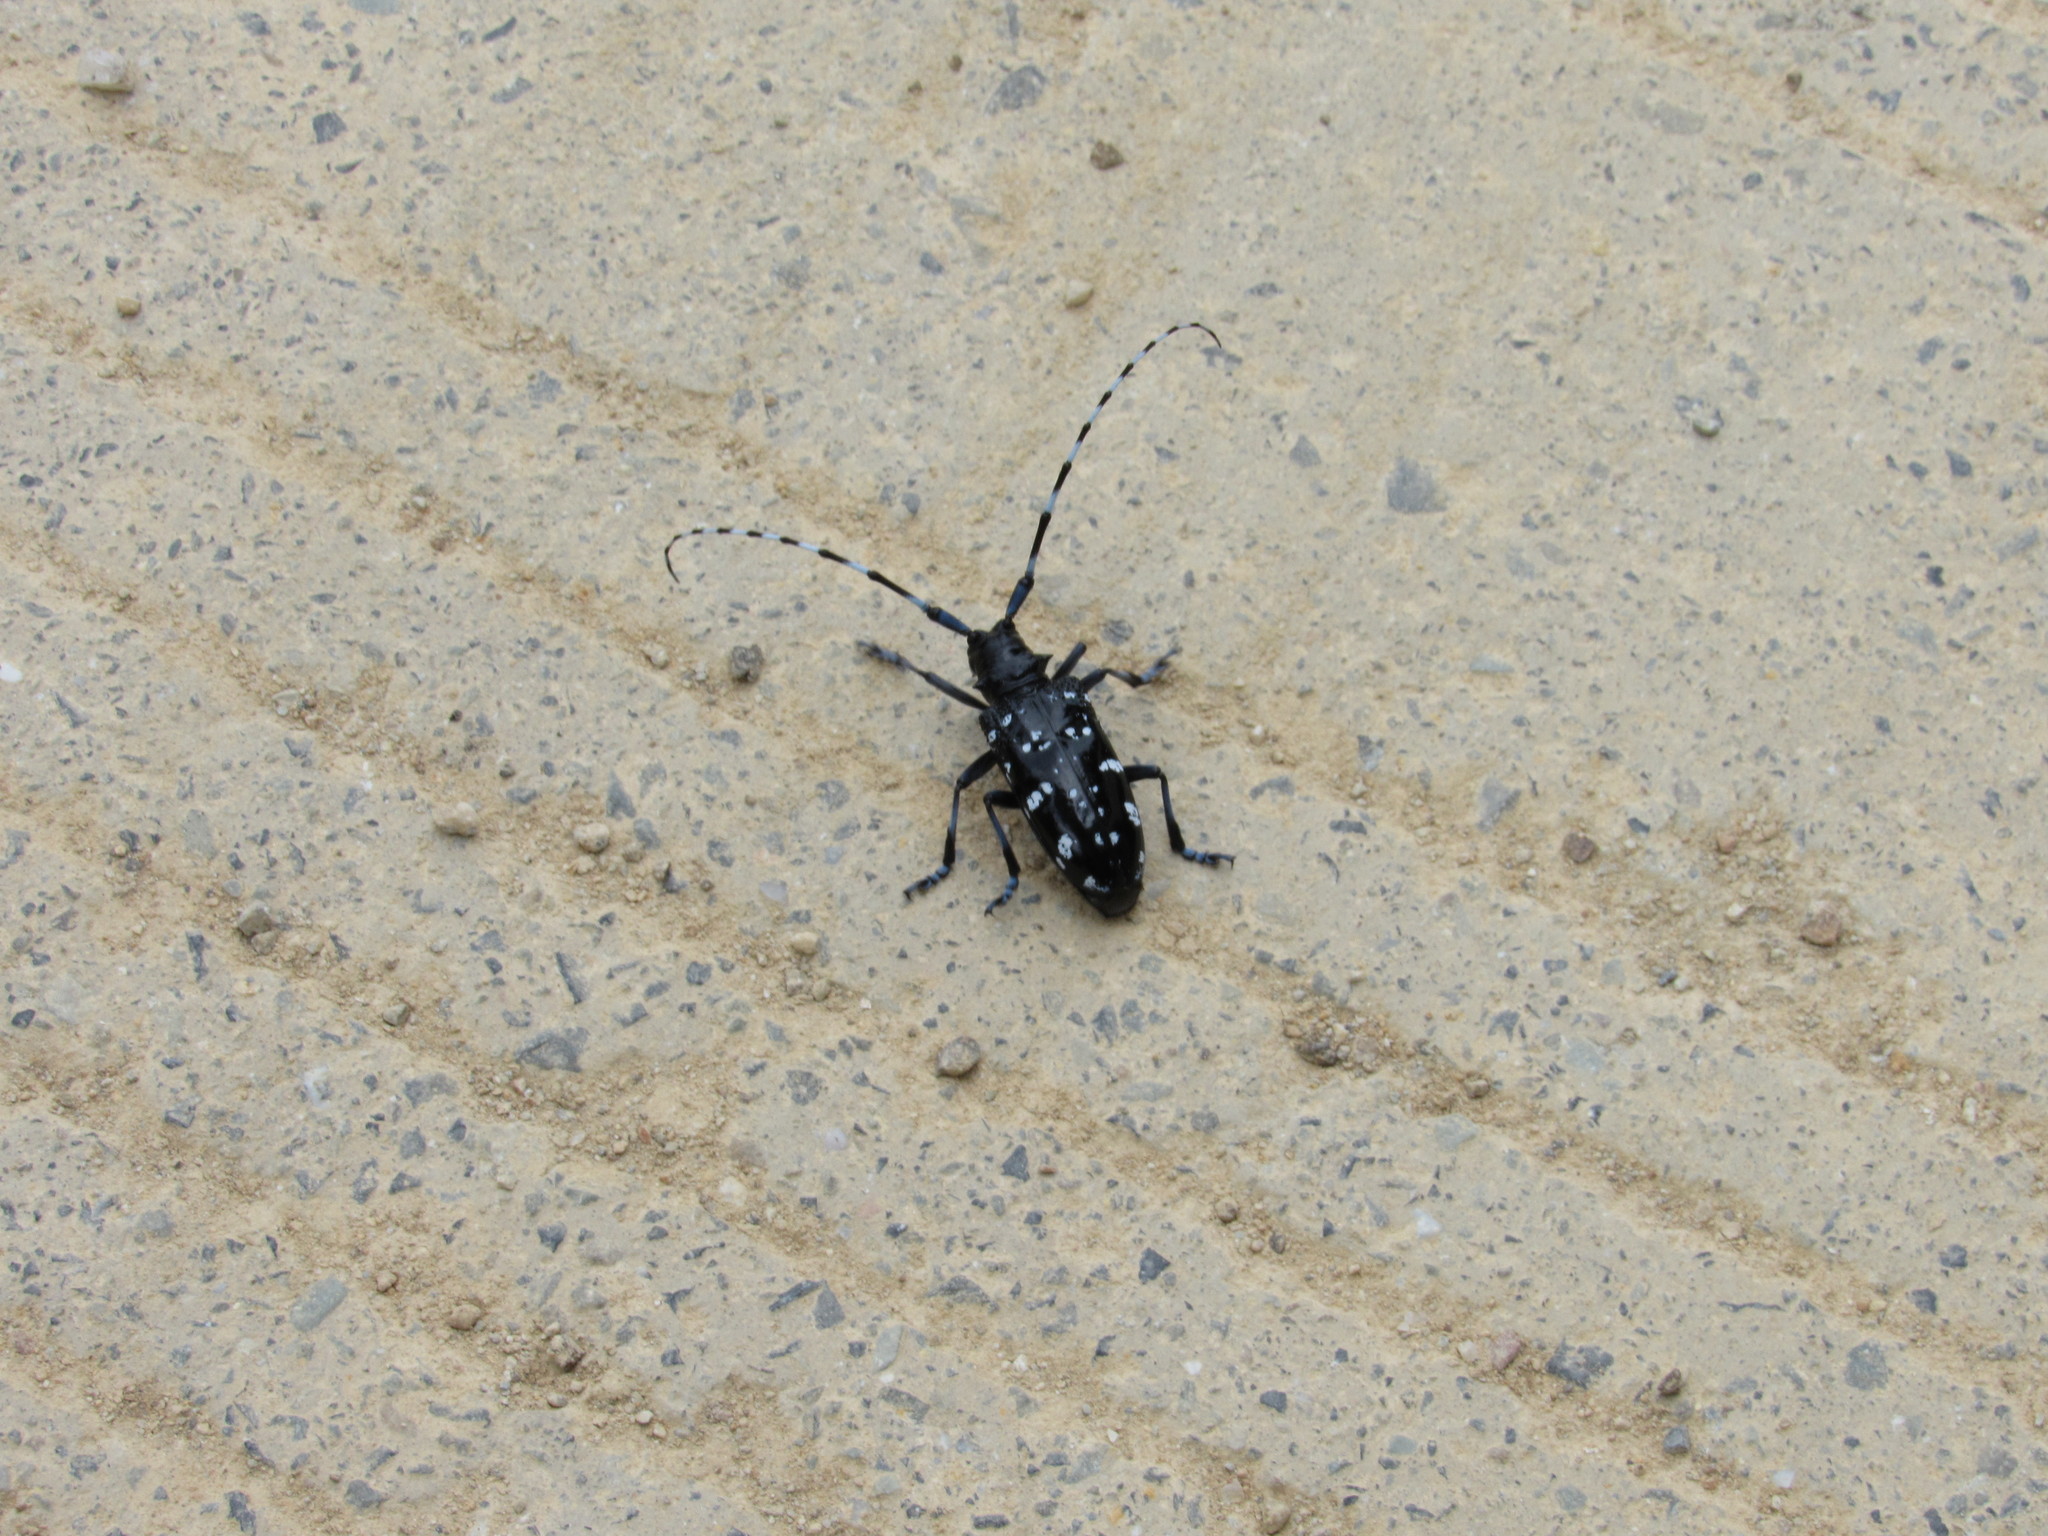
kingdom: Animalia
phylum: Arthropoda
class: Insecta
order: Coleoptera
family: Cerambycidae
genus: Anoplophora
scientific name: Anoplophora chinensis
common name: Citrus longhorned beetle
